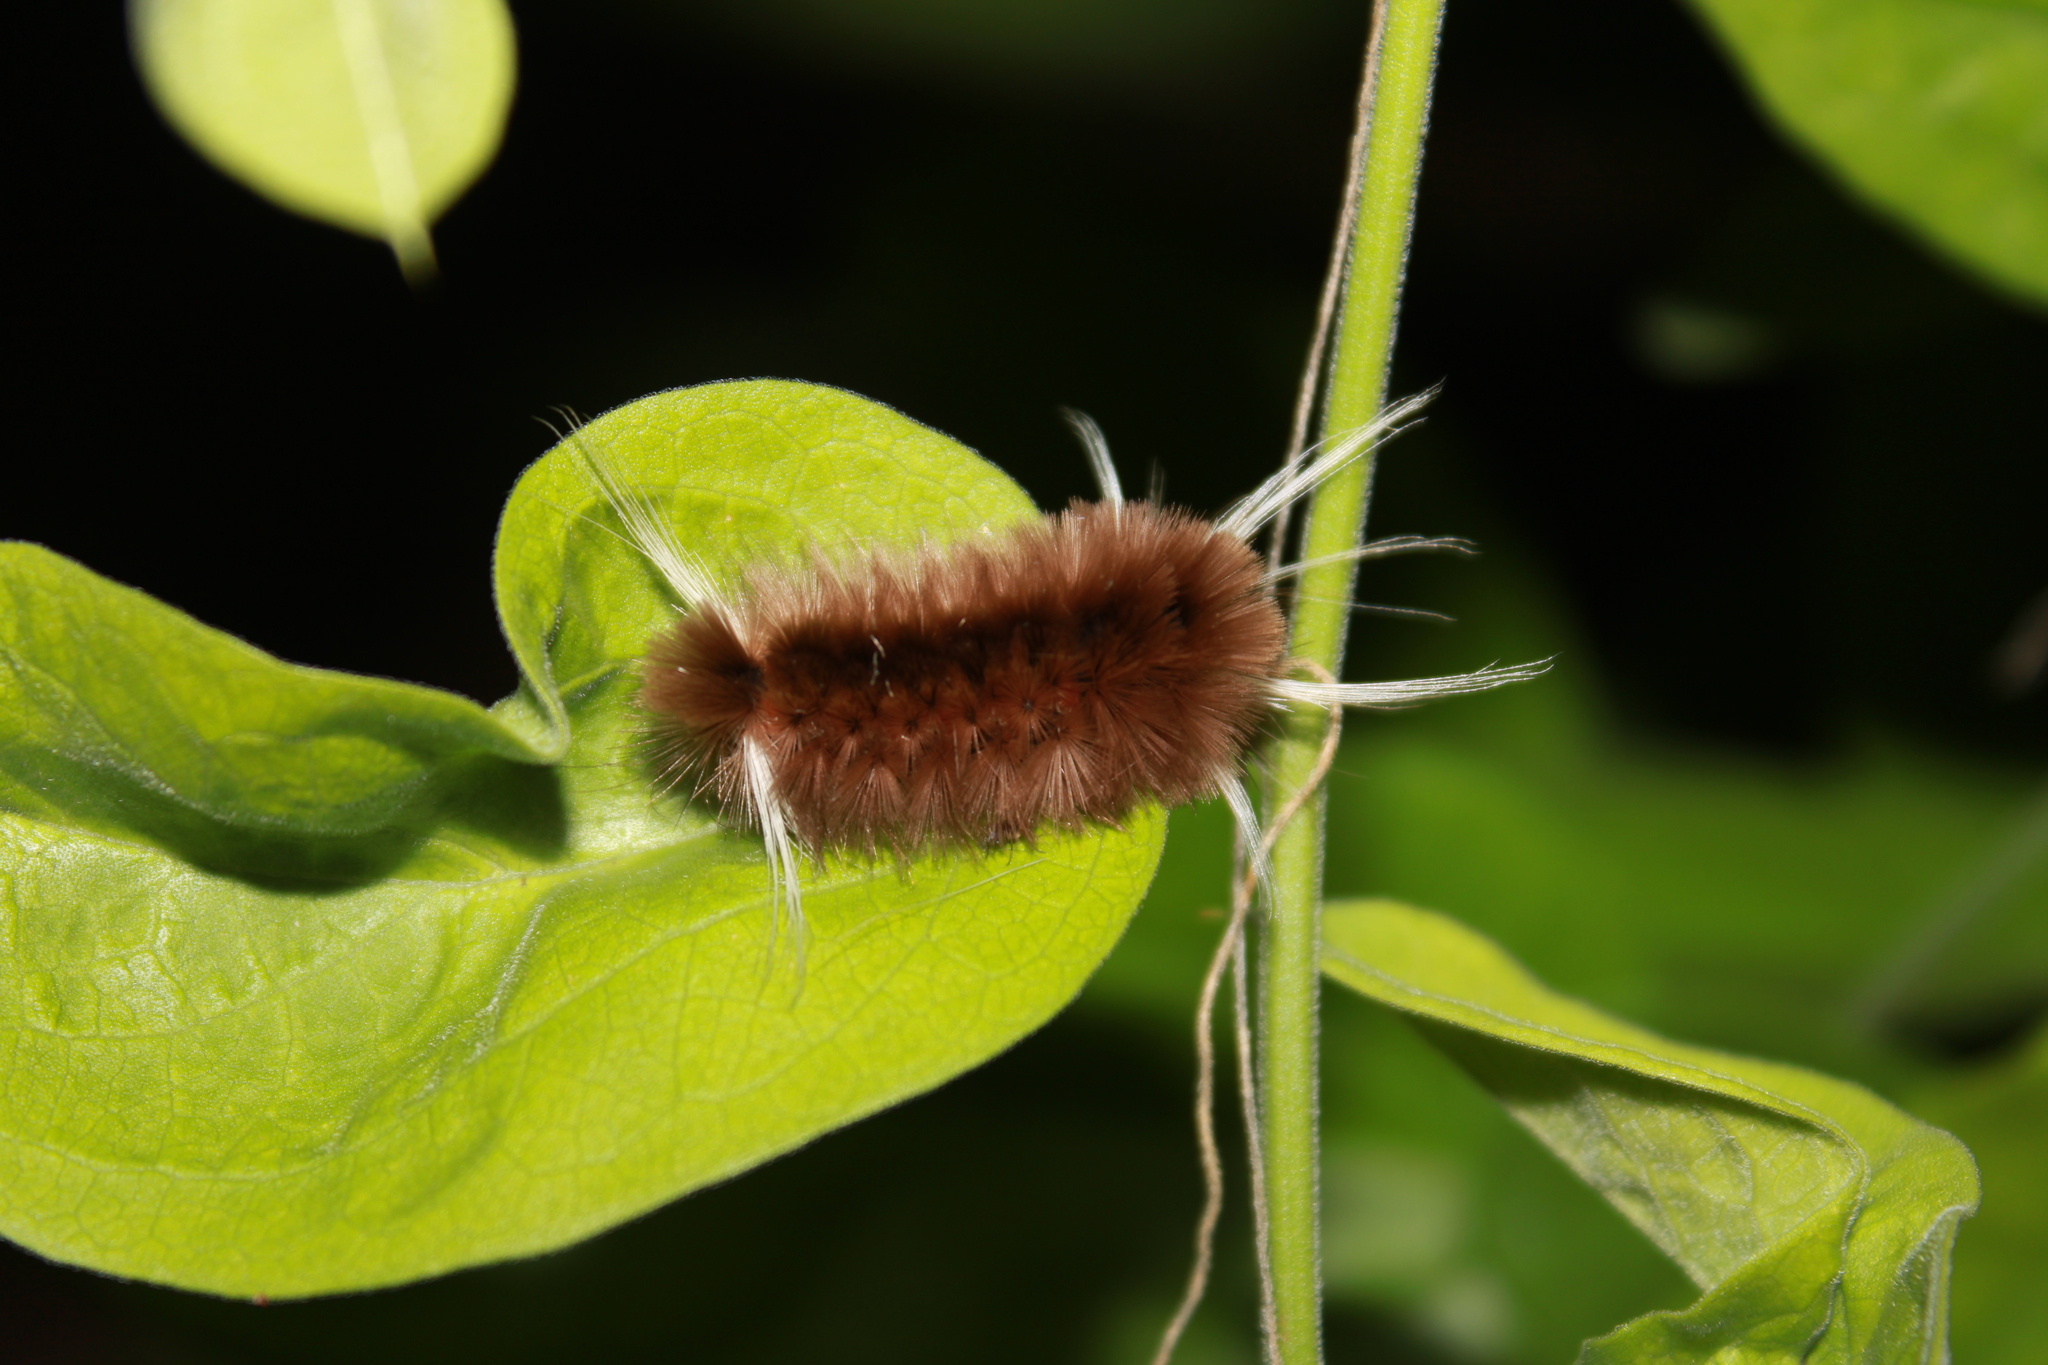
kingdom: Animalia
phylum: Arthropoda
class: Insecta
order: Lepidoptera
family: Erebidae
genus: Halysidota
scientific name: Halysidota cinctipes
